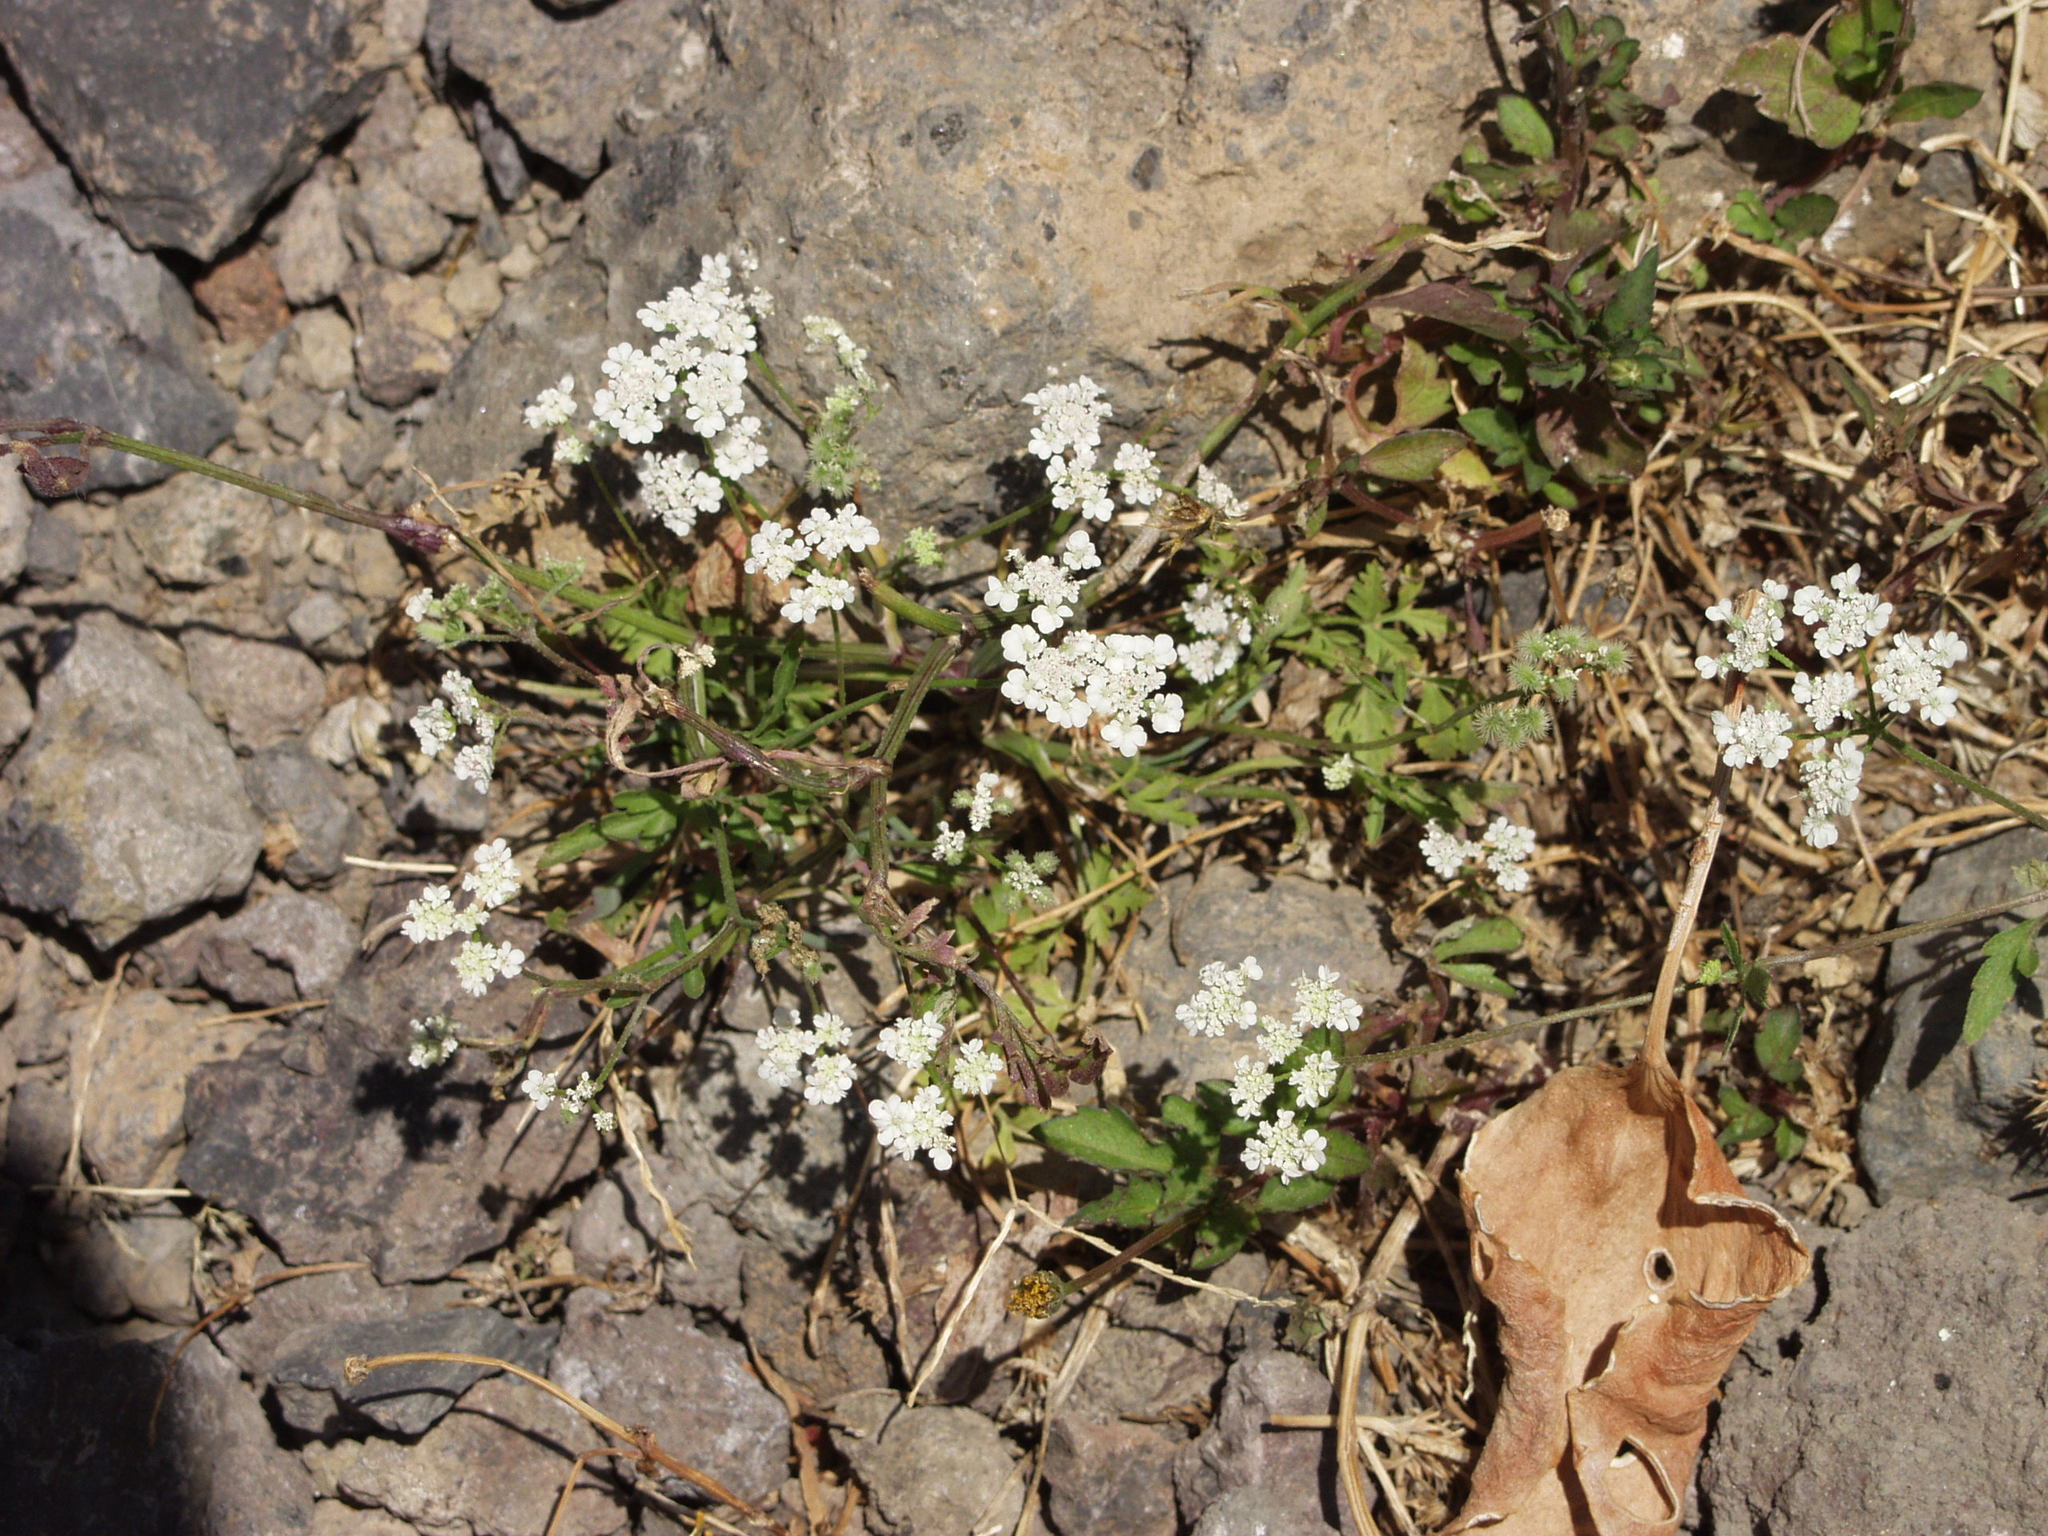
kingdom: Plantae
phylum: Tracheophyta
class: Magnoliopsida
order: Apiales
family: Apiaceae
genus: Torilis
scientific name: Torilis arvensis
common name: Spreading hedge-parsley
